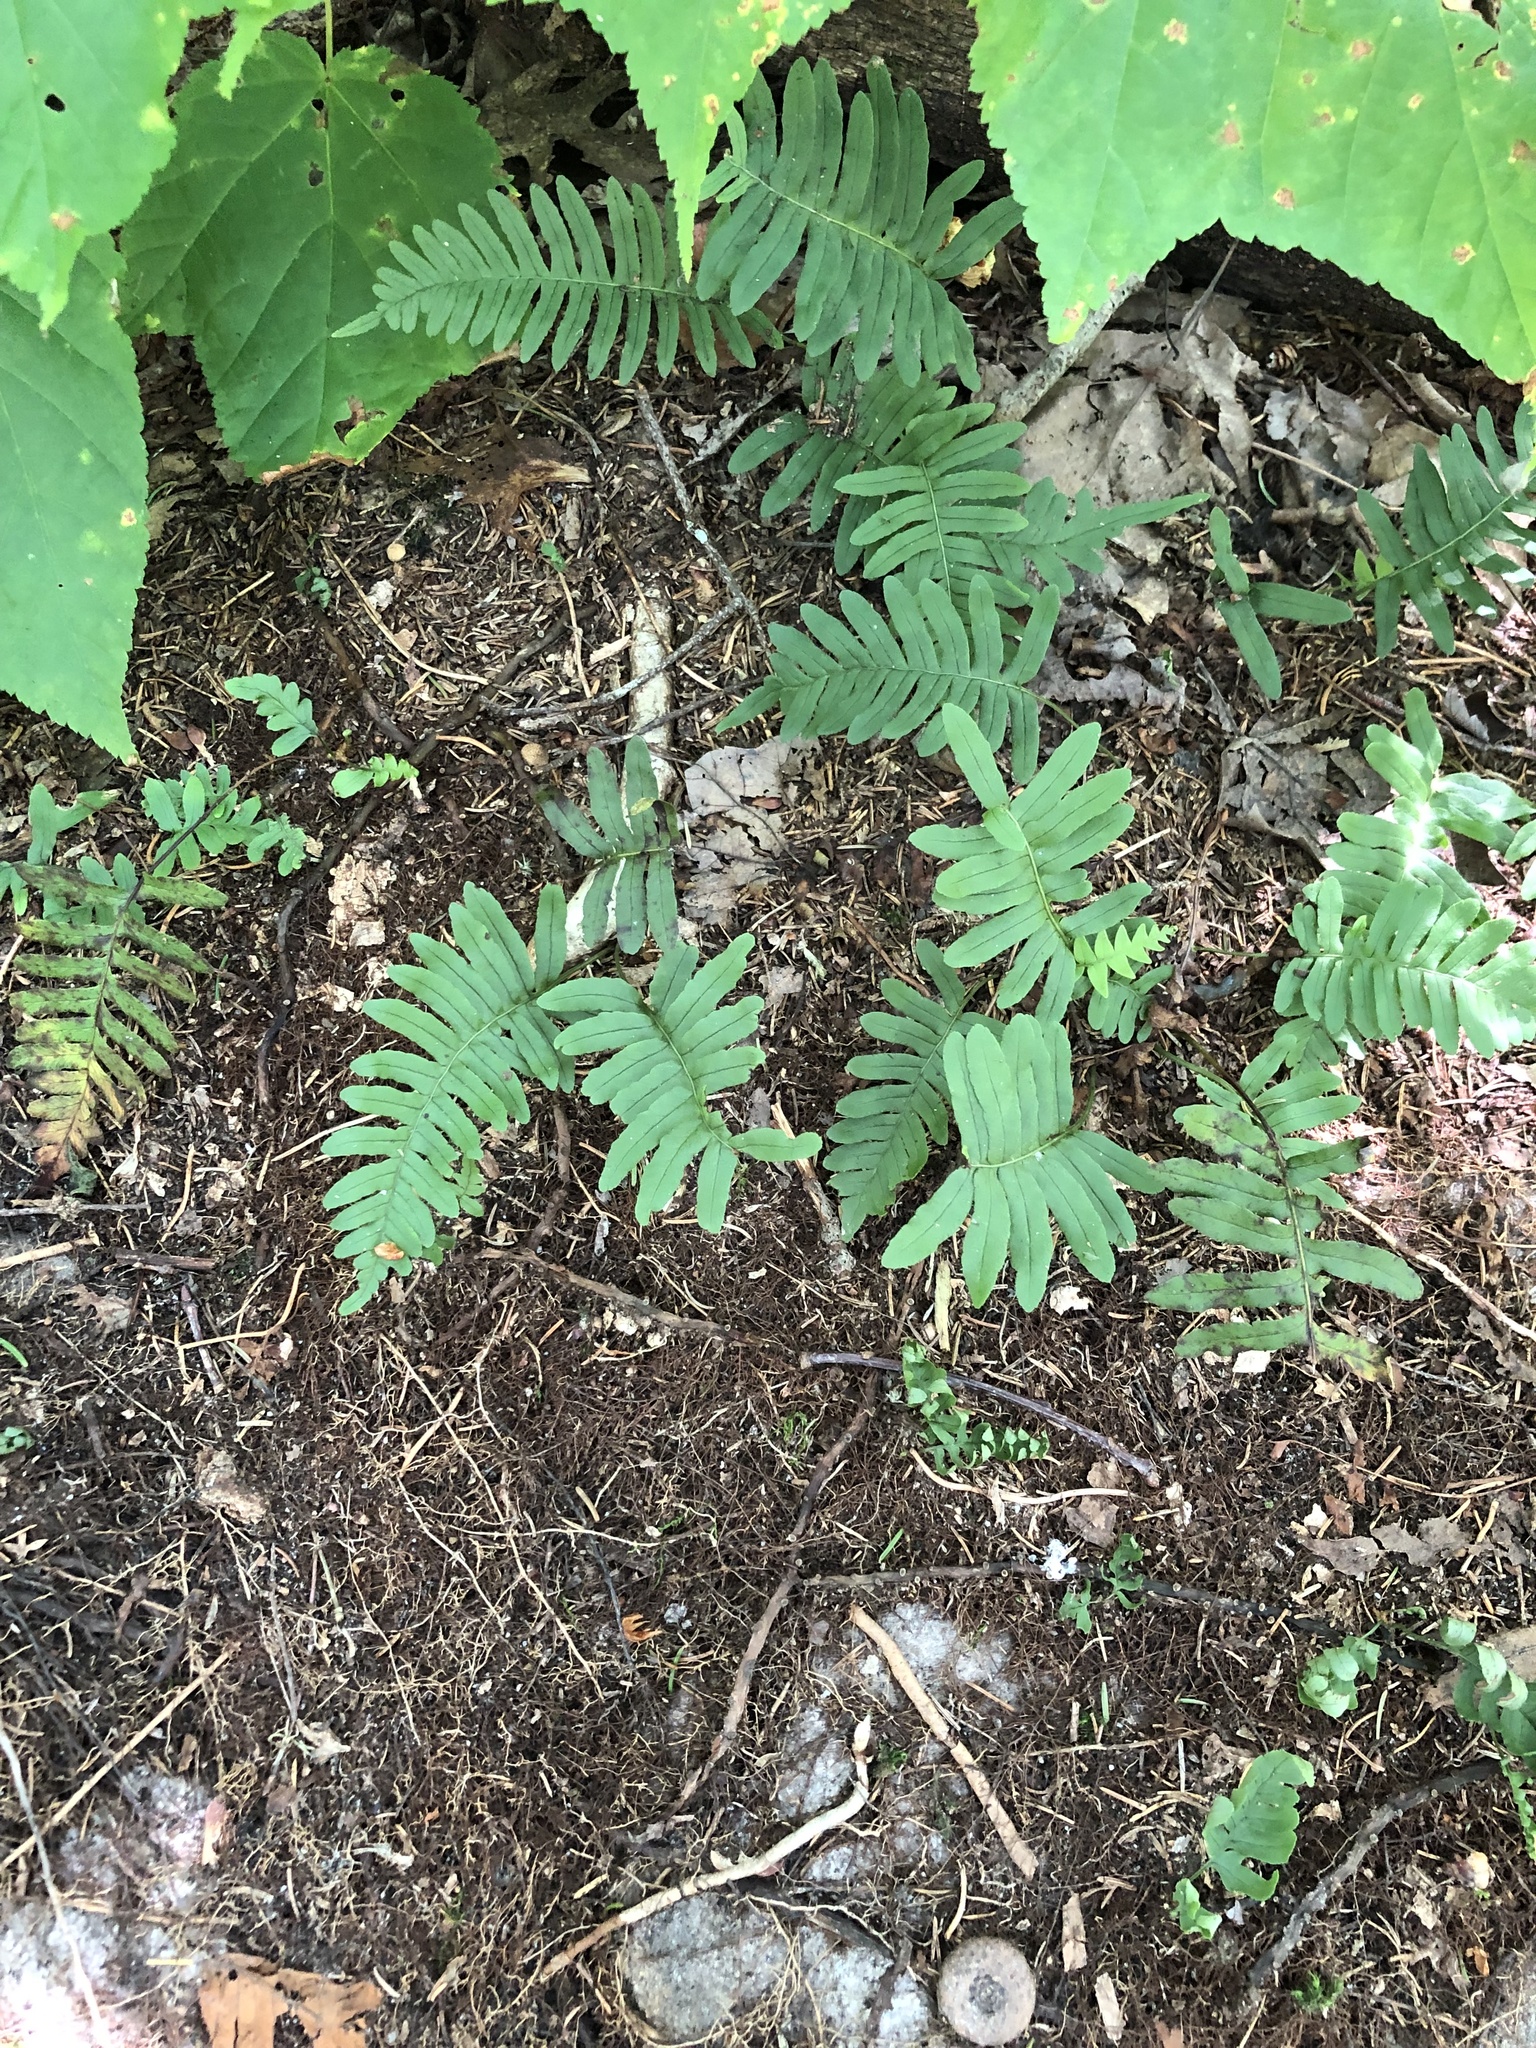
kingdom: Plantae
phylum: Tracheophyta
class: Polypodiopsida
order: Polypodiales
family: Polypodiaceae
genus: Polypodium
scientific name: Polypodium virginianum
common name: American wall fern
